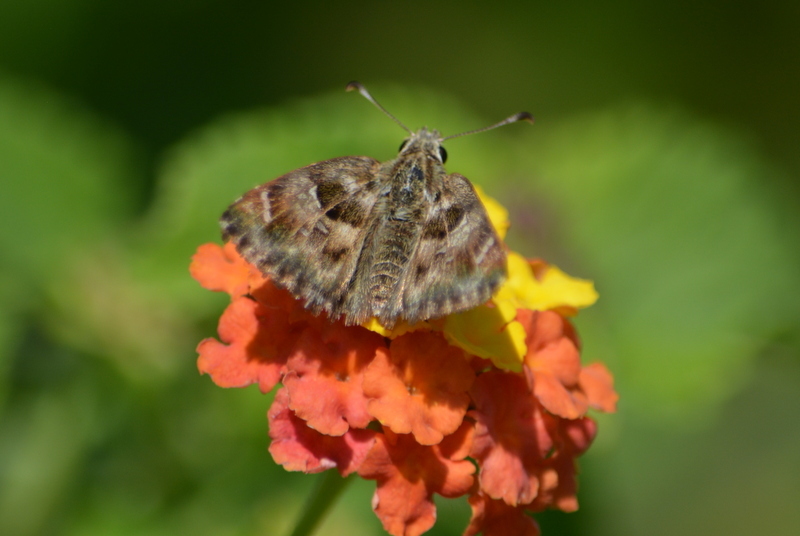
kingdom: Animalia
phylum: Arthropoda
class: Insecta
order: Lepidoptera
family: Hesperiidae
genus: Carcharodus
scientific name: Carcharodus alceae
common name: Mallow skipper
